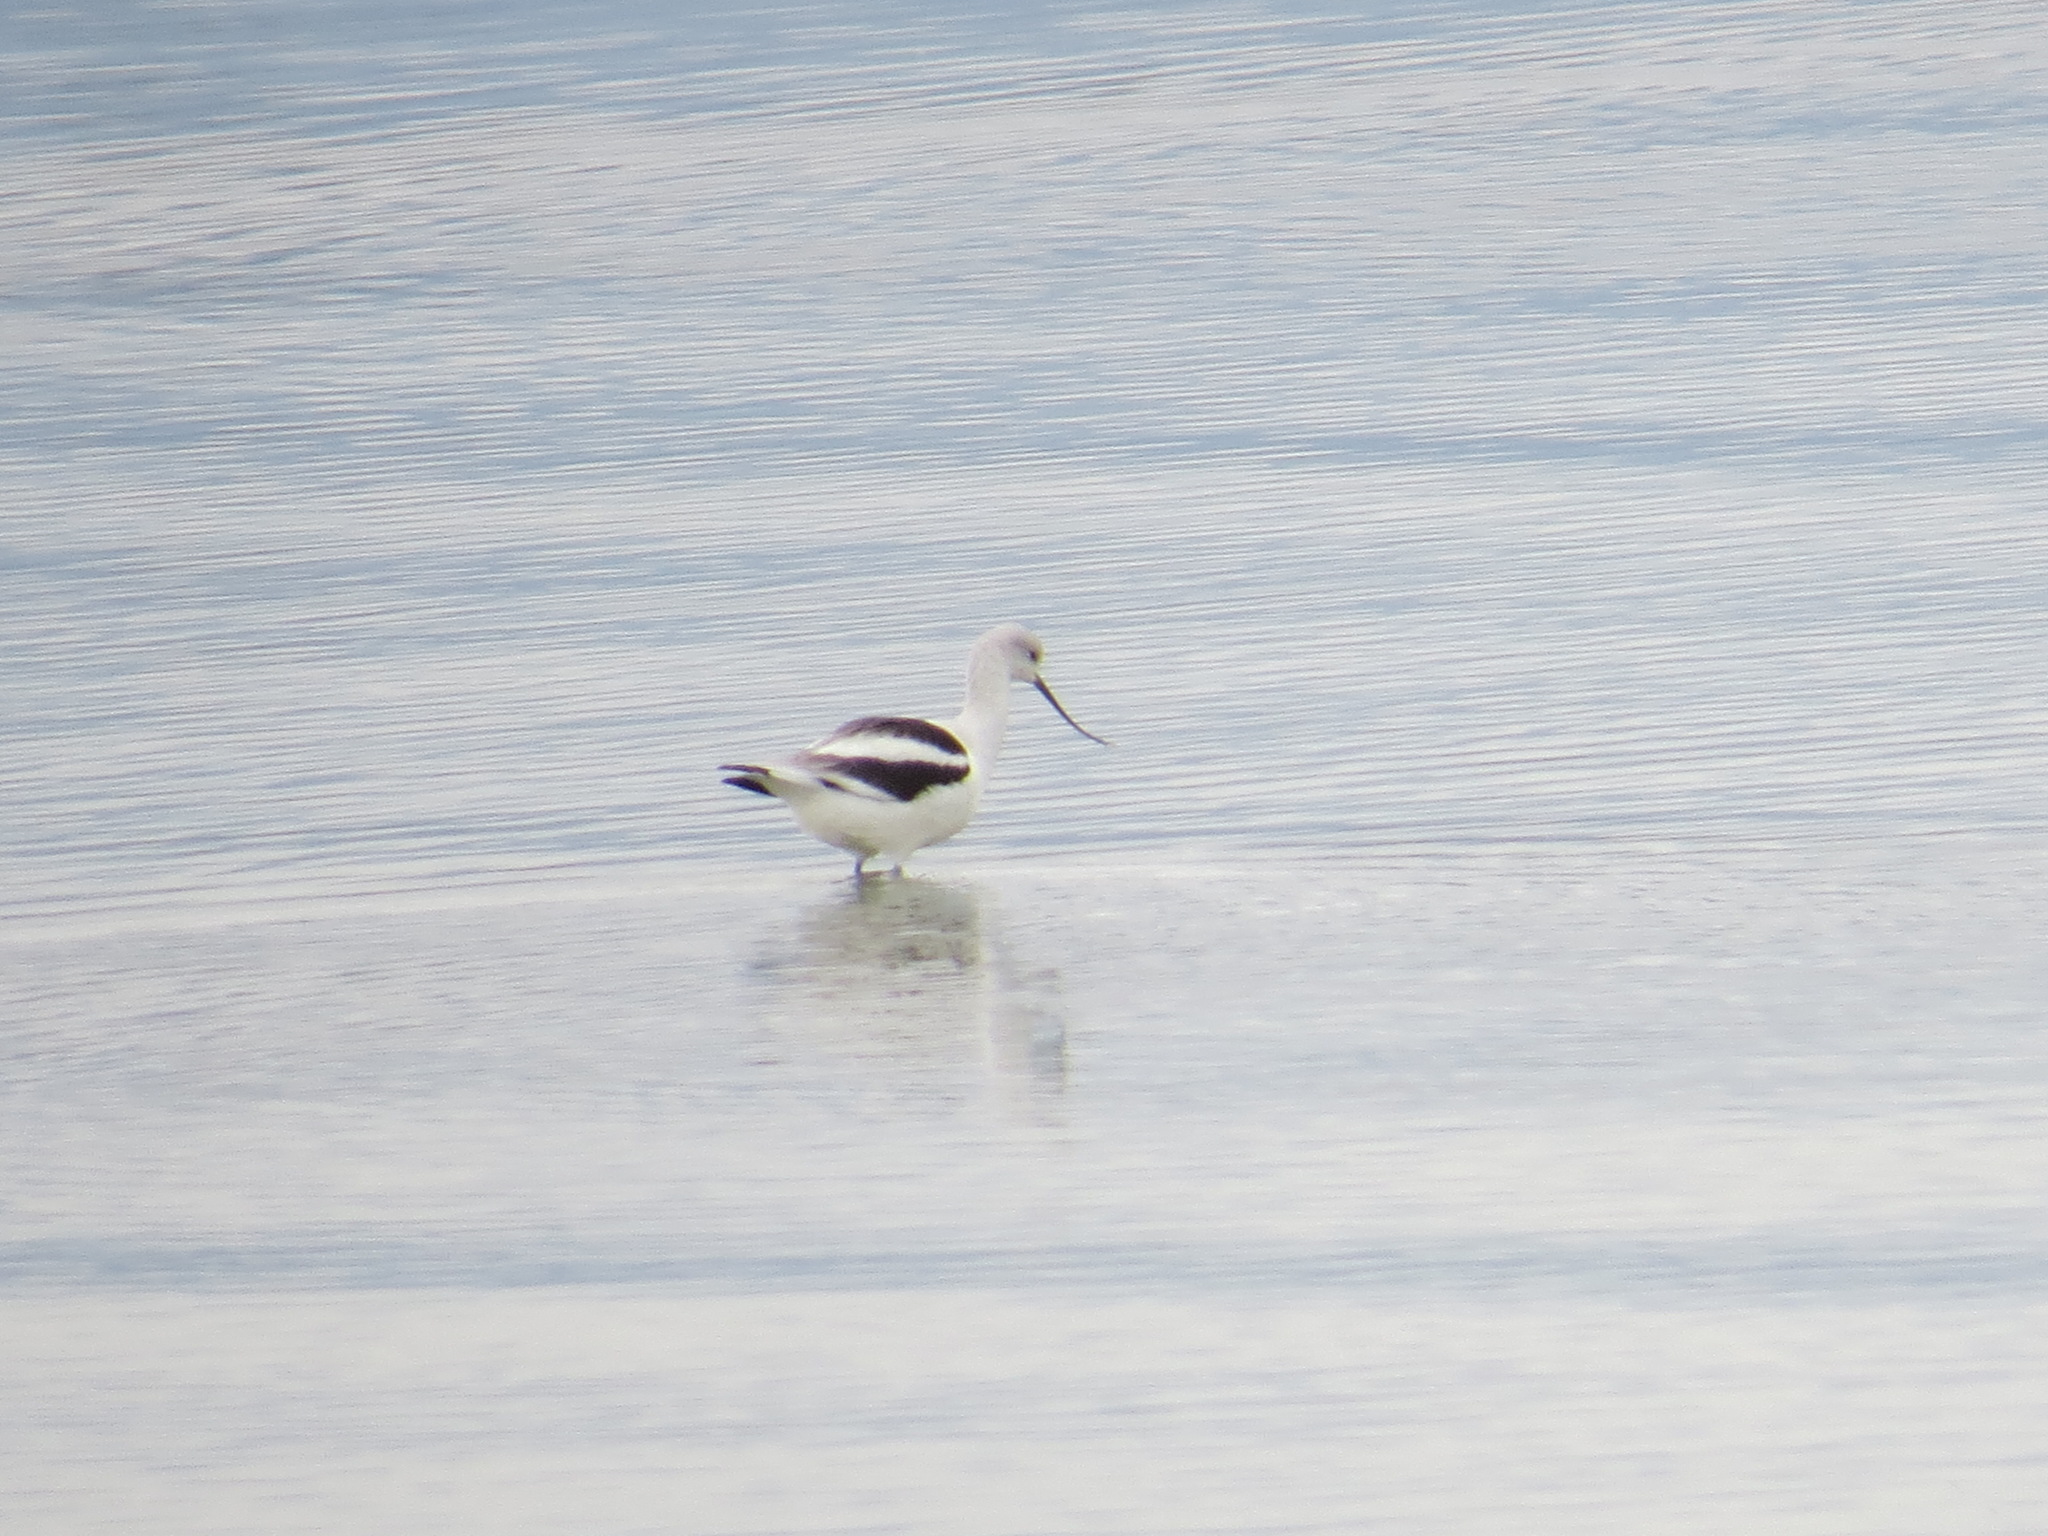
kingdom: Animalia
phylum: Chordata
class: Aves
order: Charadriiformes
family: Recurvirostridae
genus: Recurvirostra
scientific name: Recurvirostra americana
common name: American avocet
